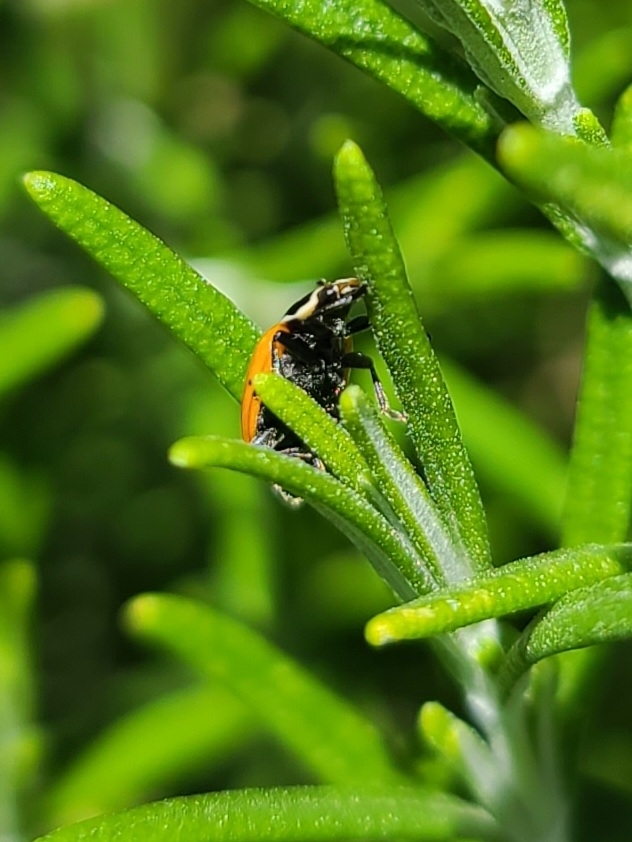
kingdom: Animalia
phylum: Arthropoda
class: Insecta
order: Coleoptera
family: Coccinellidae
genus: Hippodamia
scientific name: Hippodamia convergens
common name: Convergent lady beetle
